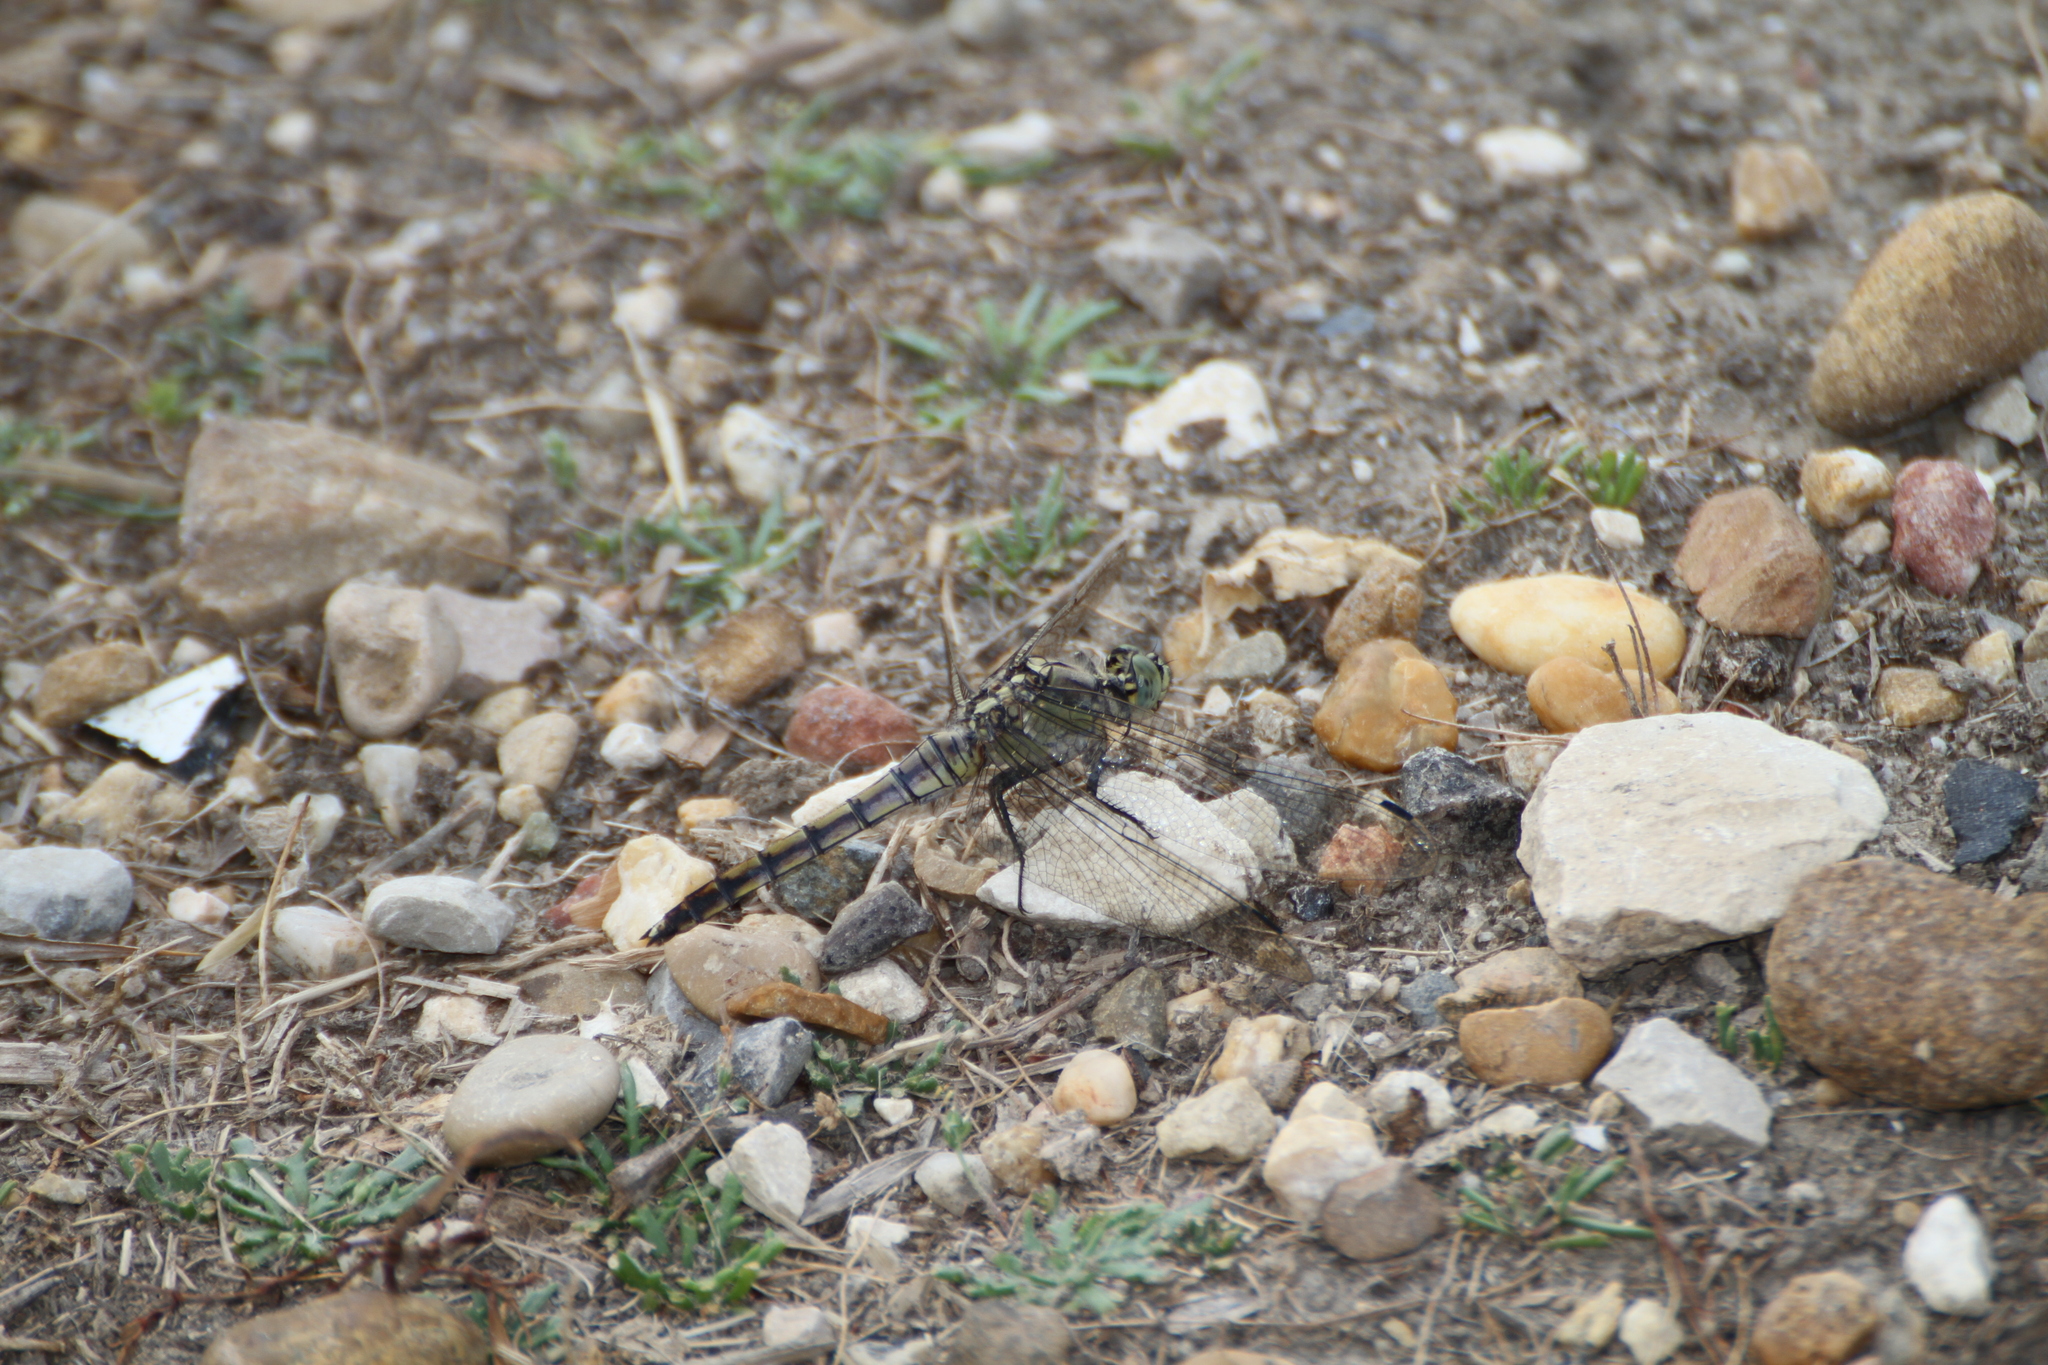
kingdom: Animalia
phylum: Arthropoda
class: Insecta
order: Odonata
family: Libellulidae
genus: Orthetrum
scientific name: Orthetrum cancellatum
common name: Black-tailed skimmer
